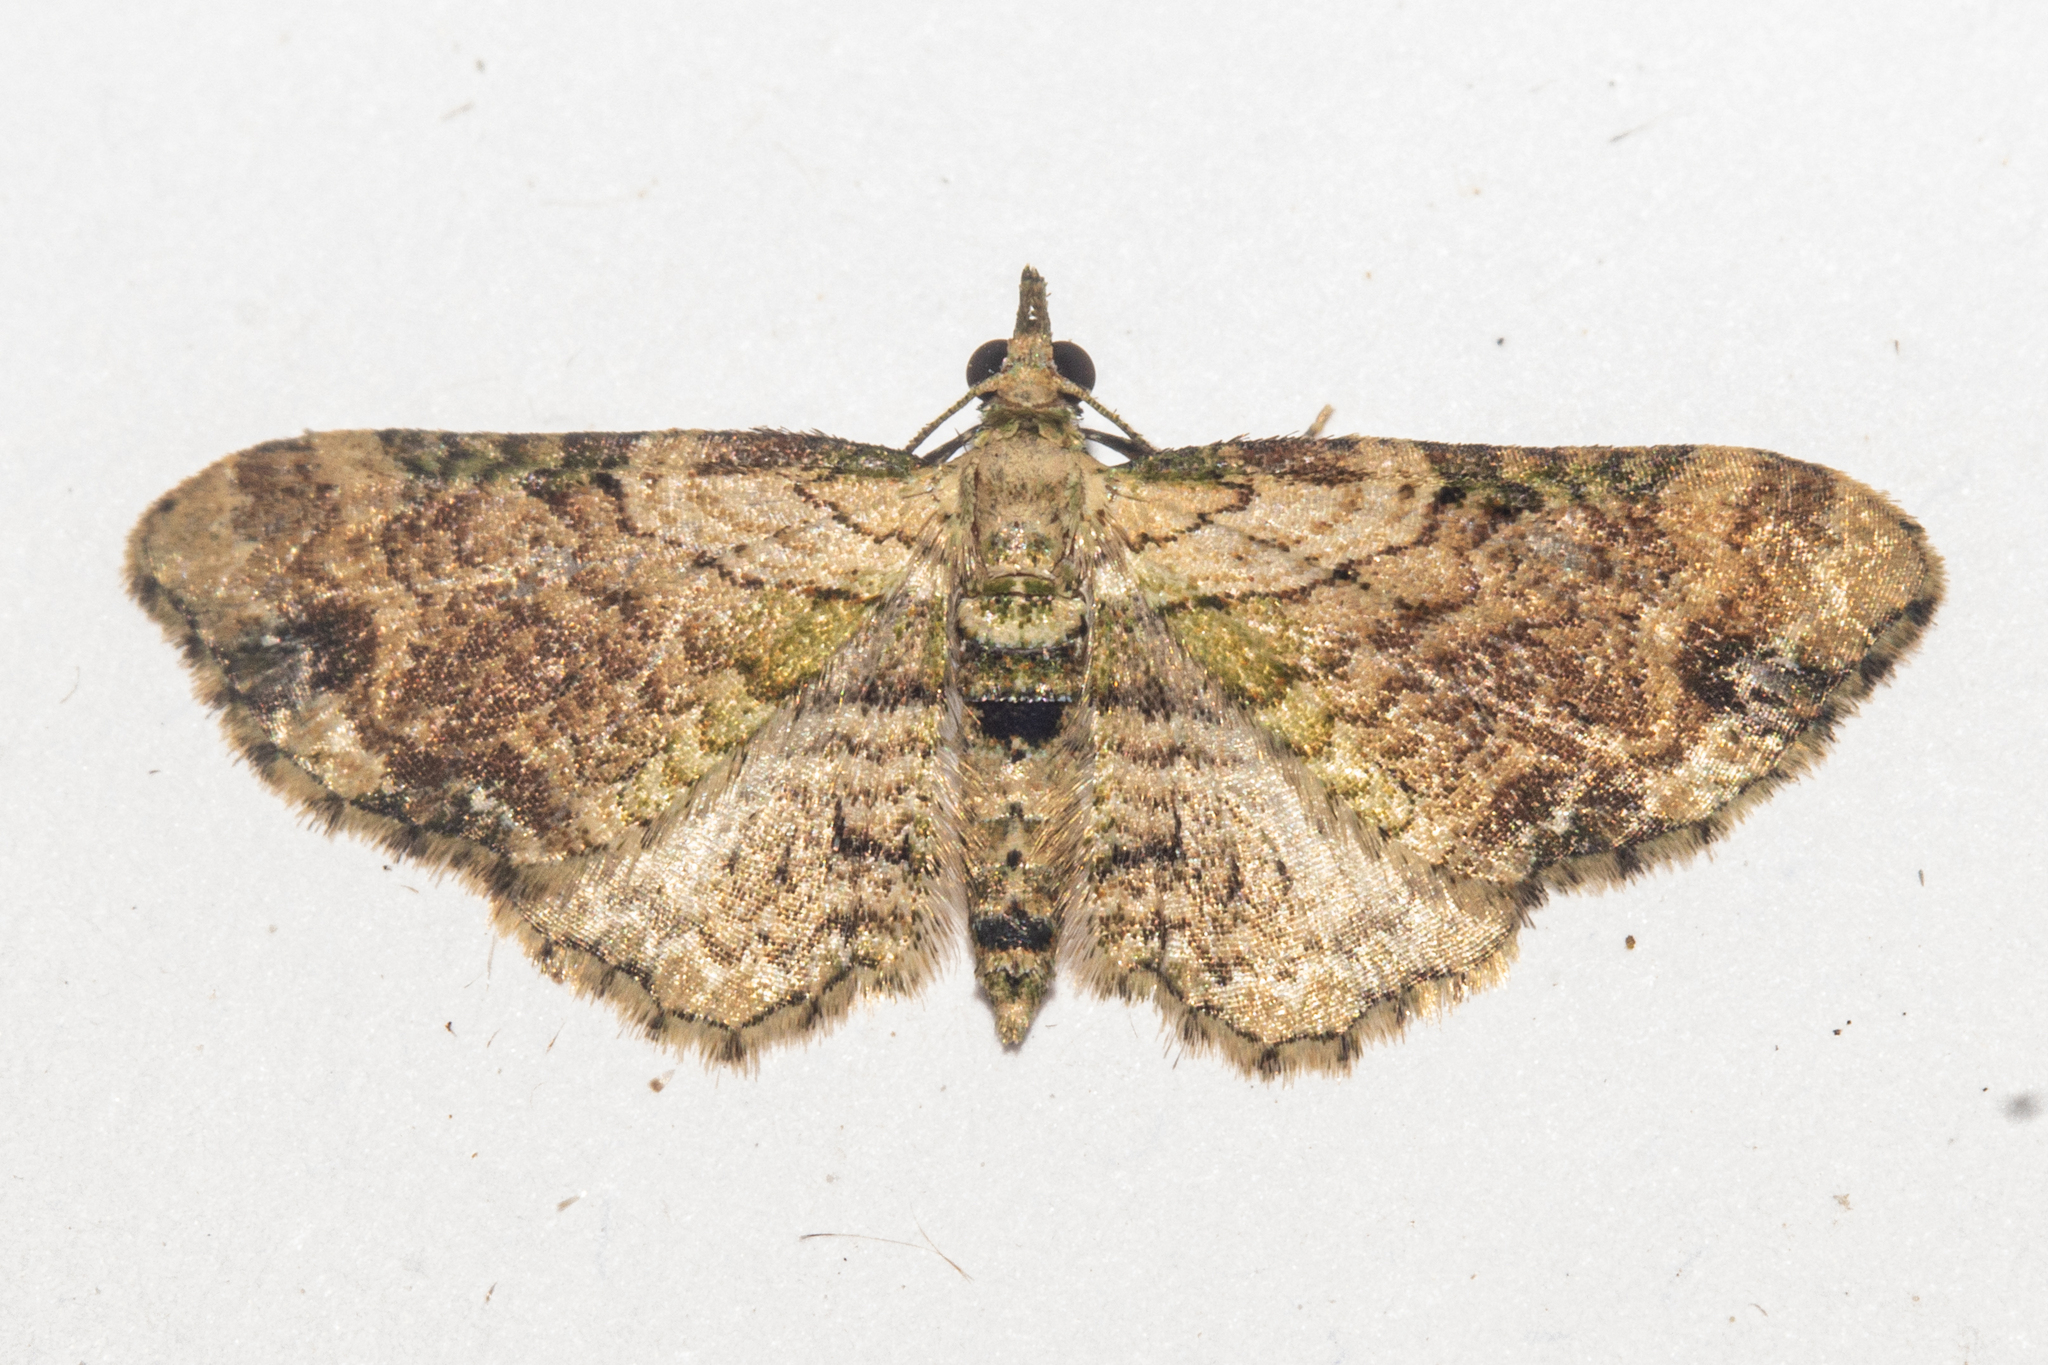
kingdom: Animalia
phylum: Arthropoda
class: Insecta
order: Lepidoptera
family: Geometridae
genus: Chloroclystis
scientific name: Chloroclystis
